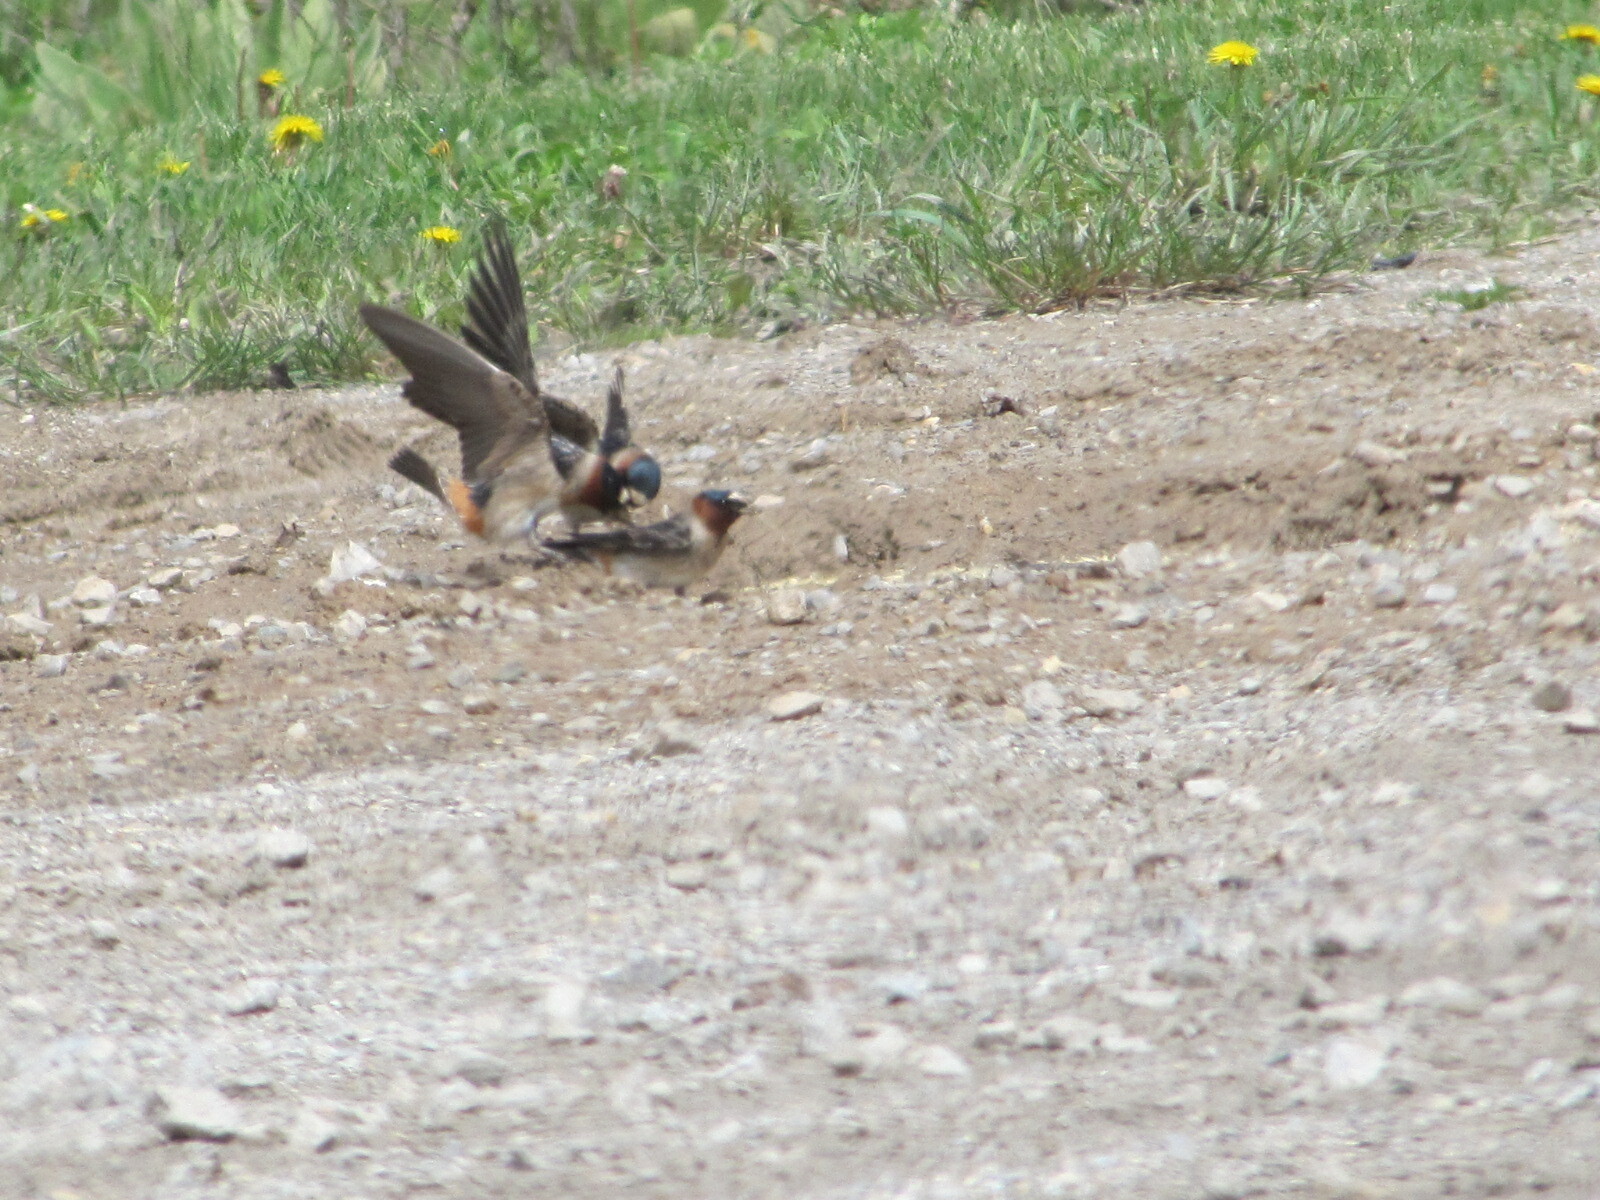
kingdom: Animalia
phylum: Chordata
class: Aves
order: Passeriformes
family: Hirundinidae
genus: Petrochelidon
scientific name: Petrochelidon pyrrhonota
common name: American cliff swallow
